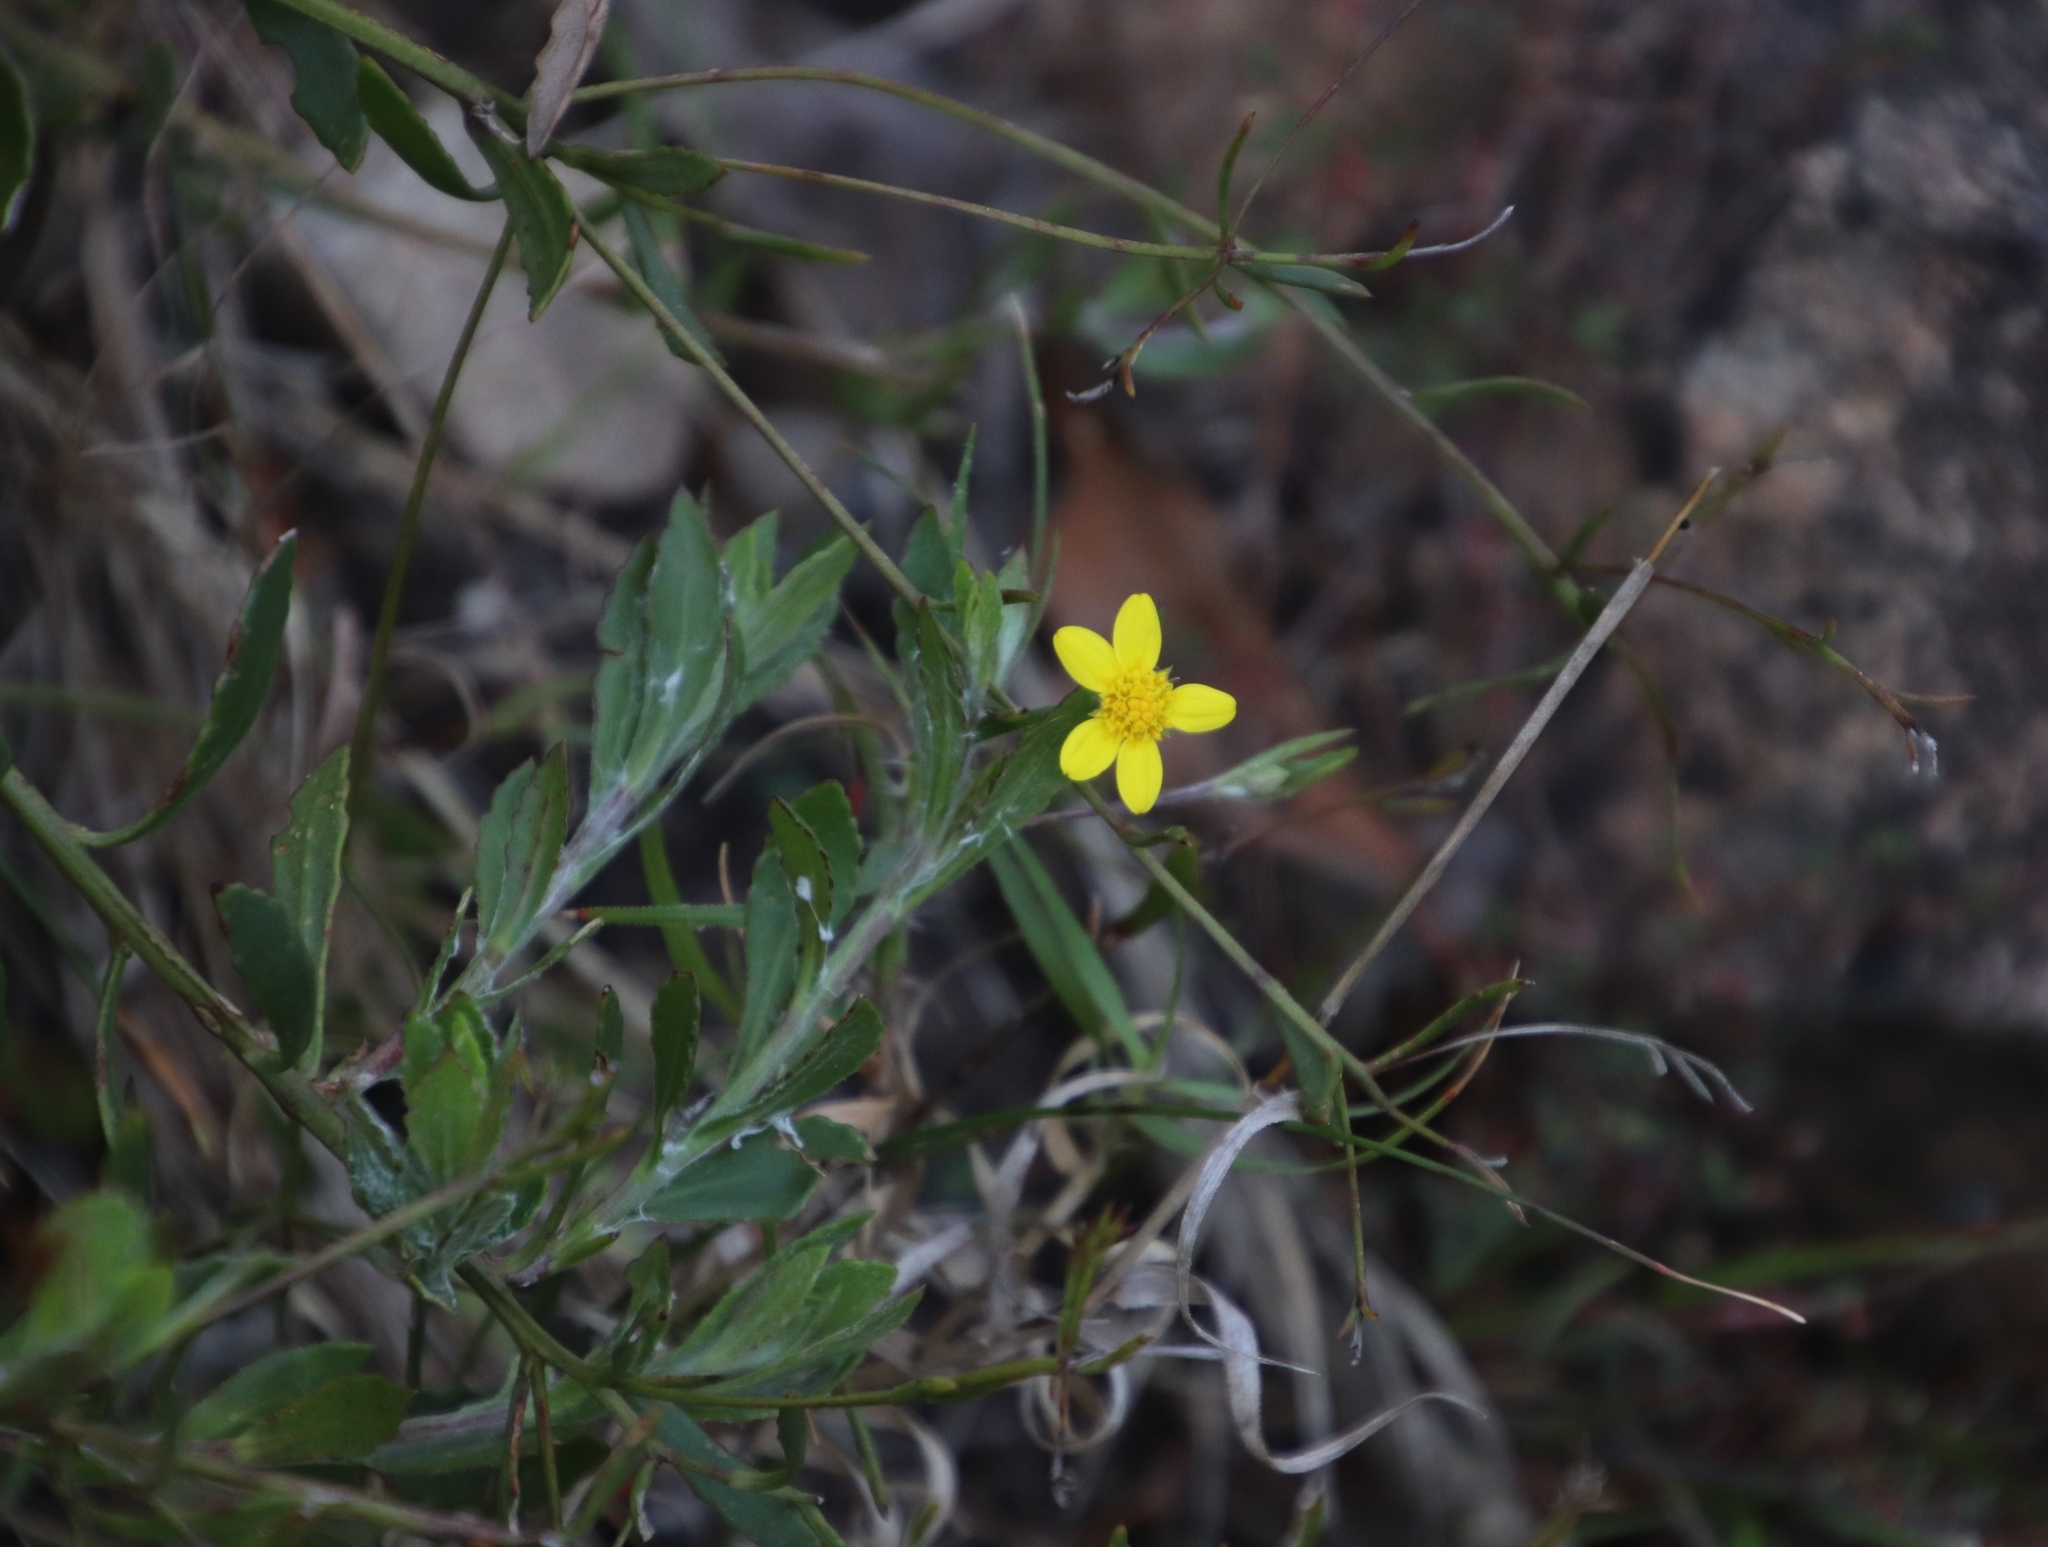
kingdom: Plantae
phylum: Tracheophyta
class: Magnoliopsida
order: Asterales
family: Asteraceae
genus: Osteospermum
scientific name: Osteospermum ciliatum
